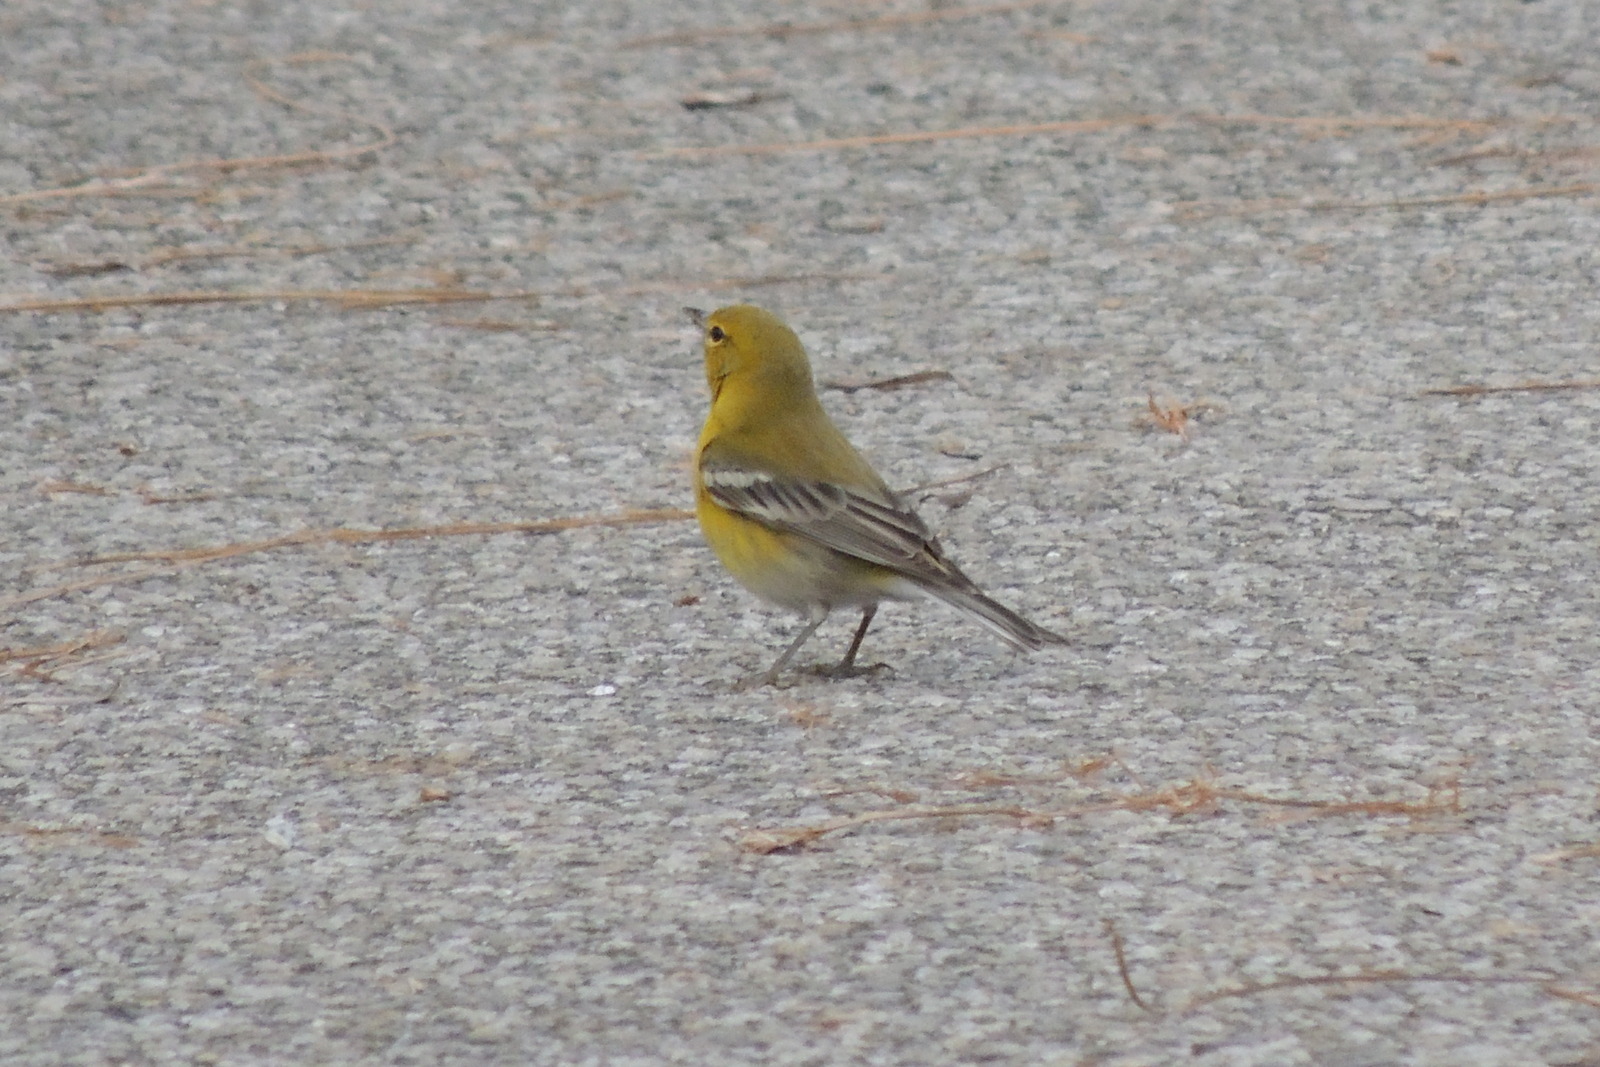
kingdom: Animalia
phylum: Chordata
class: Aves
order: Passeriformes
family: Parulidae
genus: Setophaga
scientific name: Setophaga pinus
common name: Pine warbler
